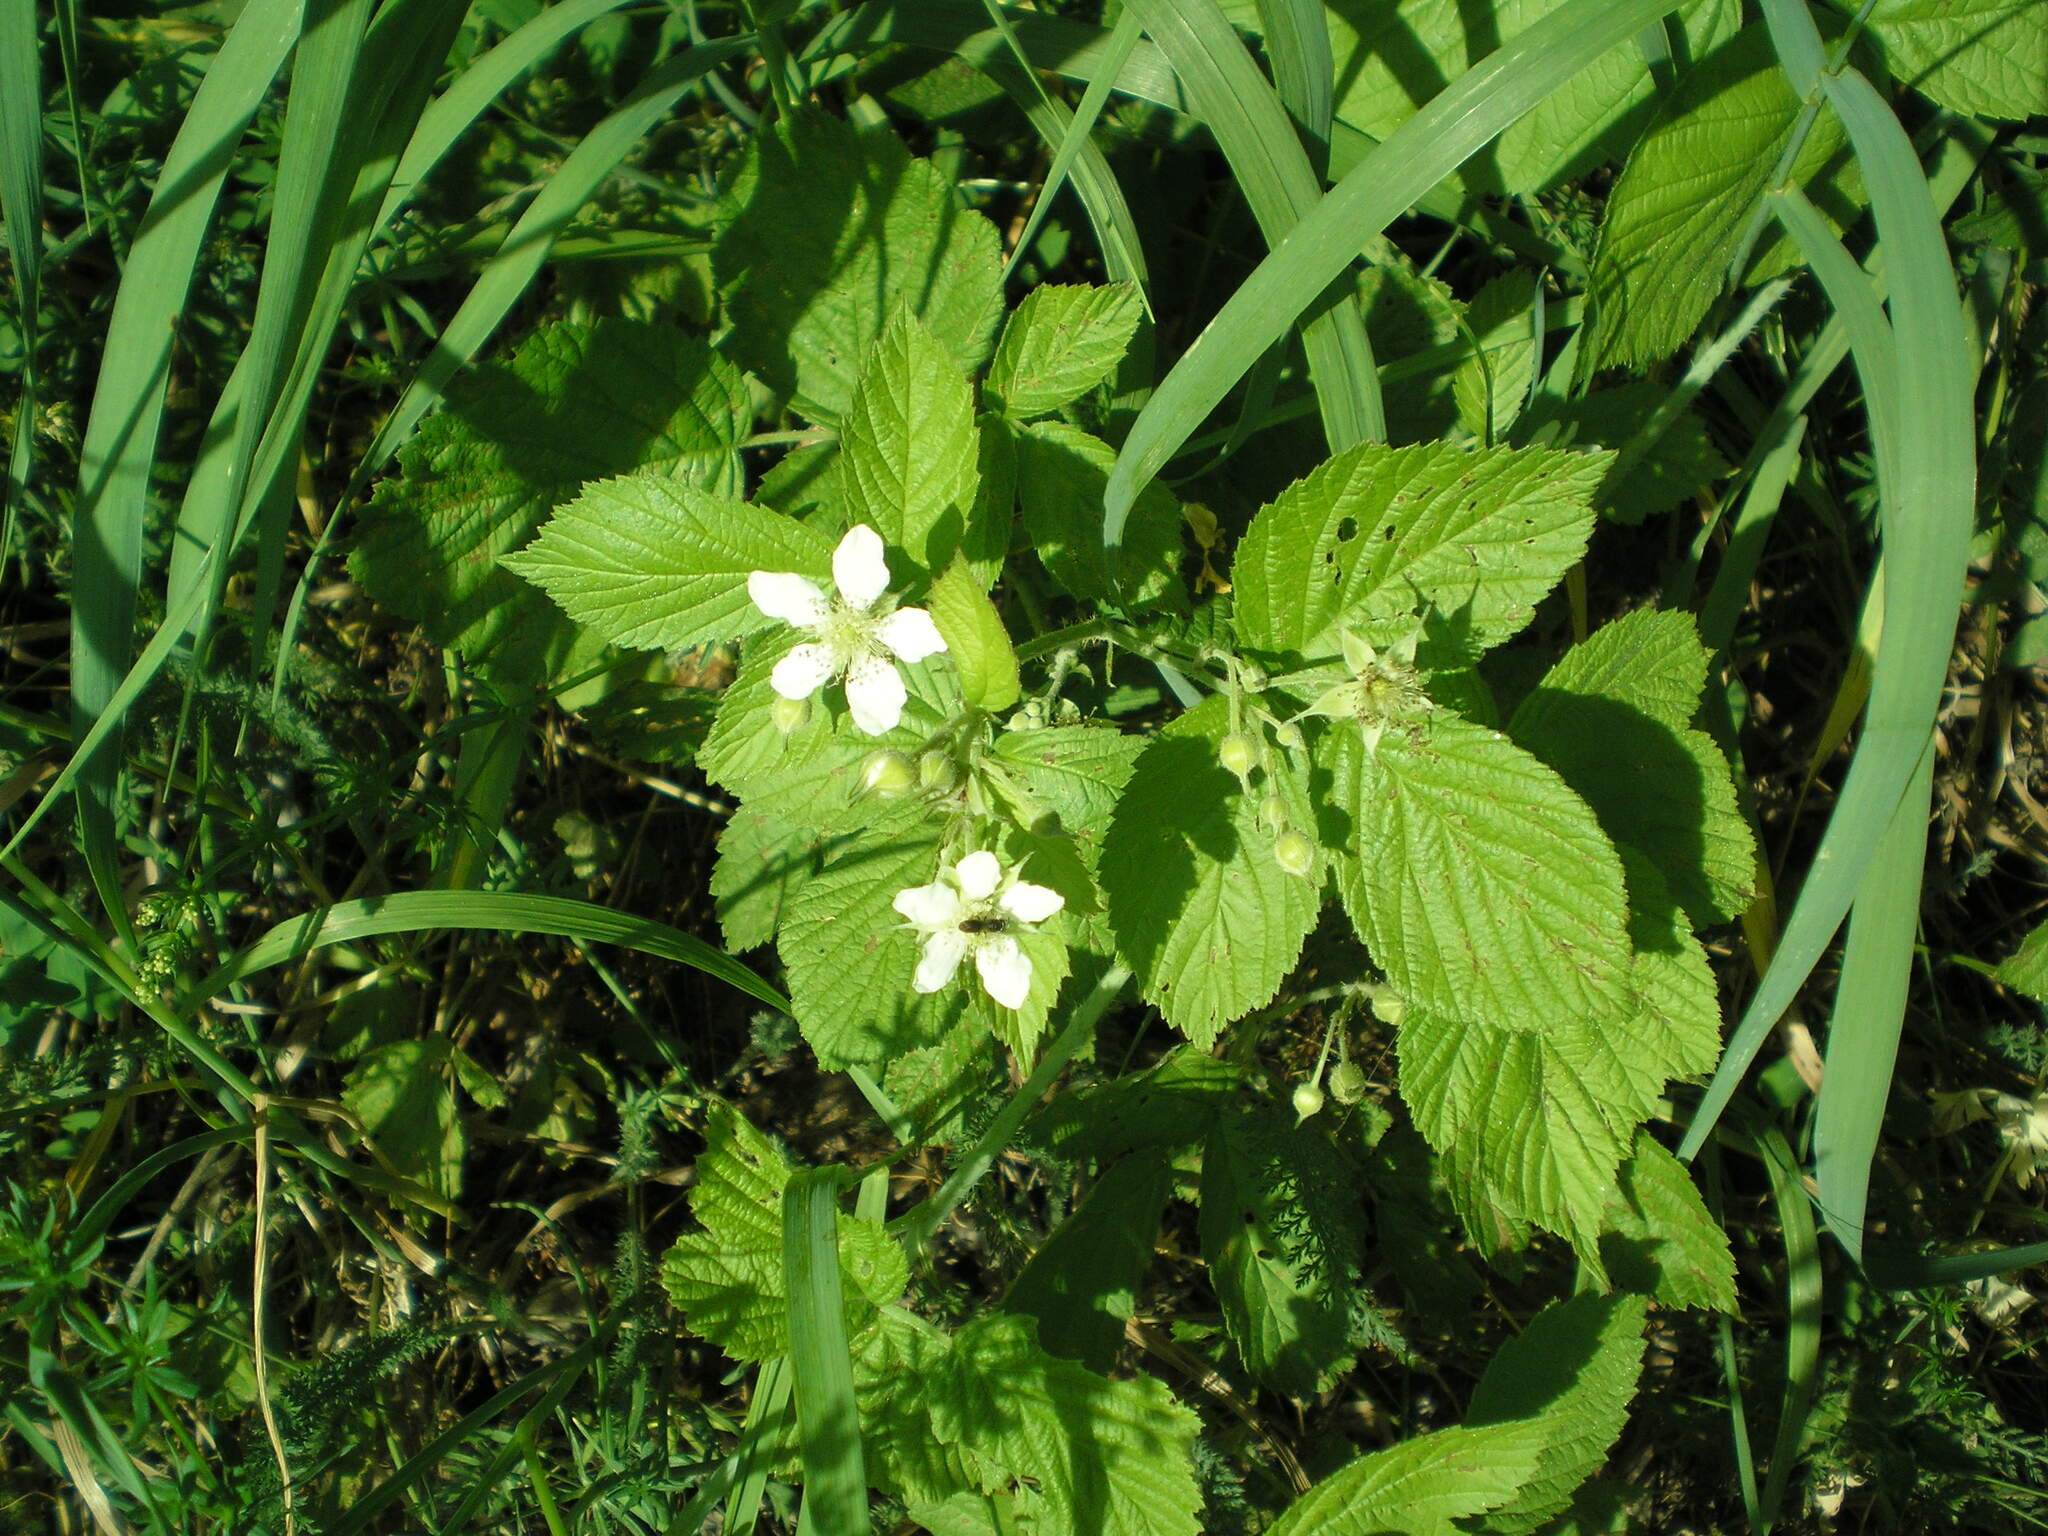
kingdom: Plantae
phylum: Tracheophyta
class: Magnoliopsida
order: Rosales
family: Rosaceae
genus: Rubus
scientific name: Rubus caesius
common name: Dewberry
